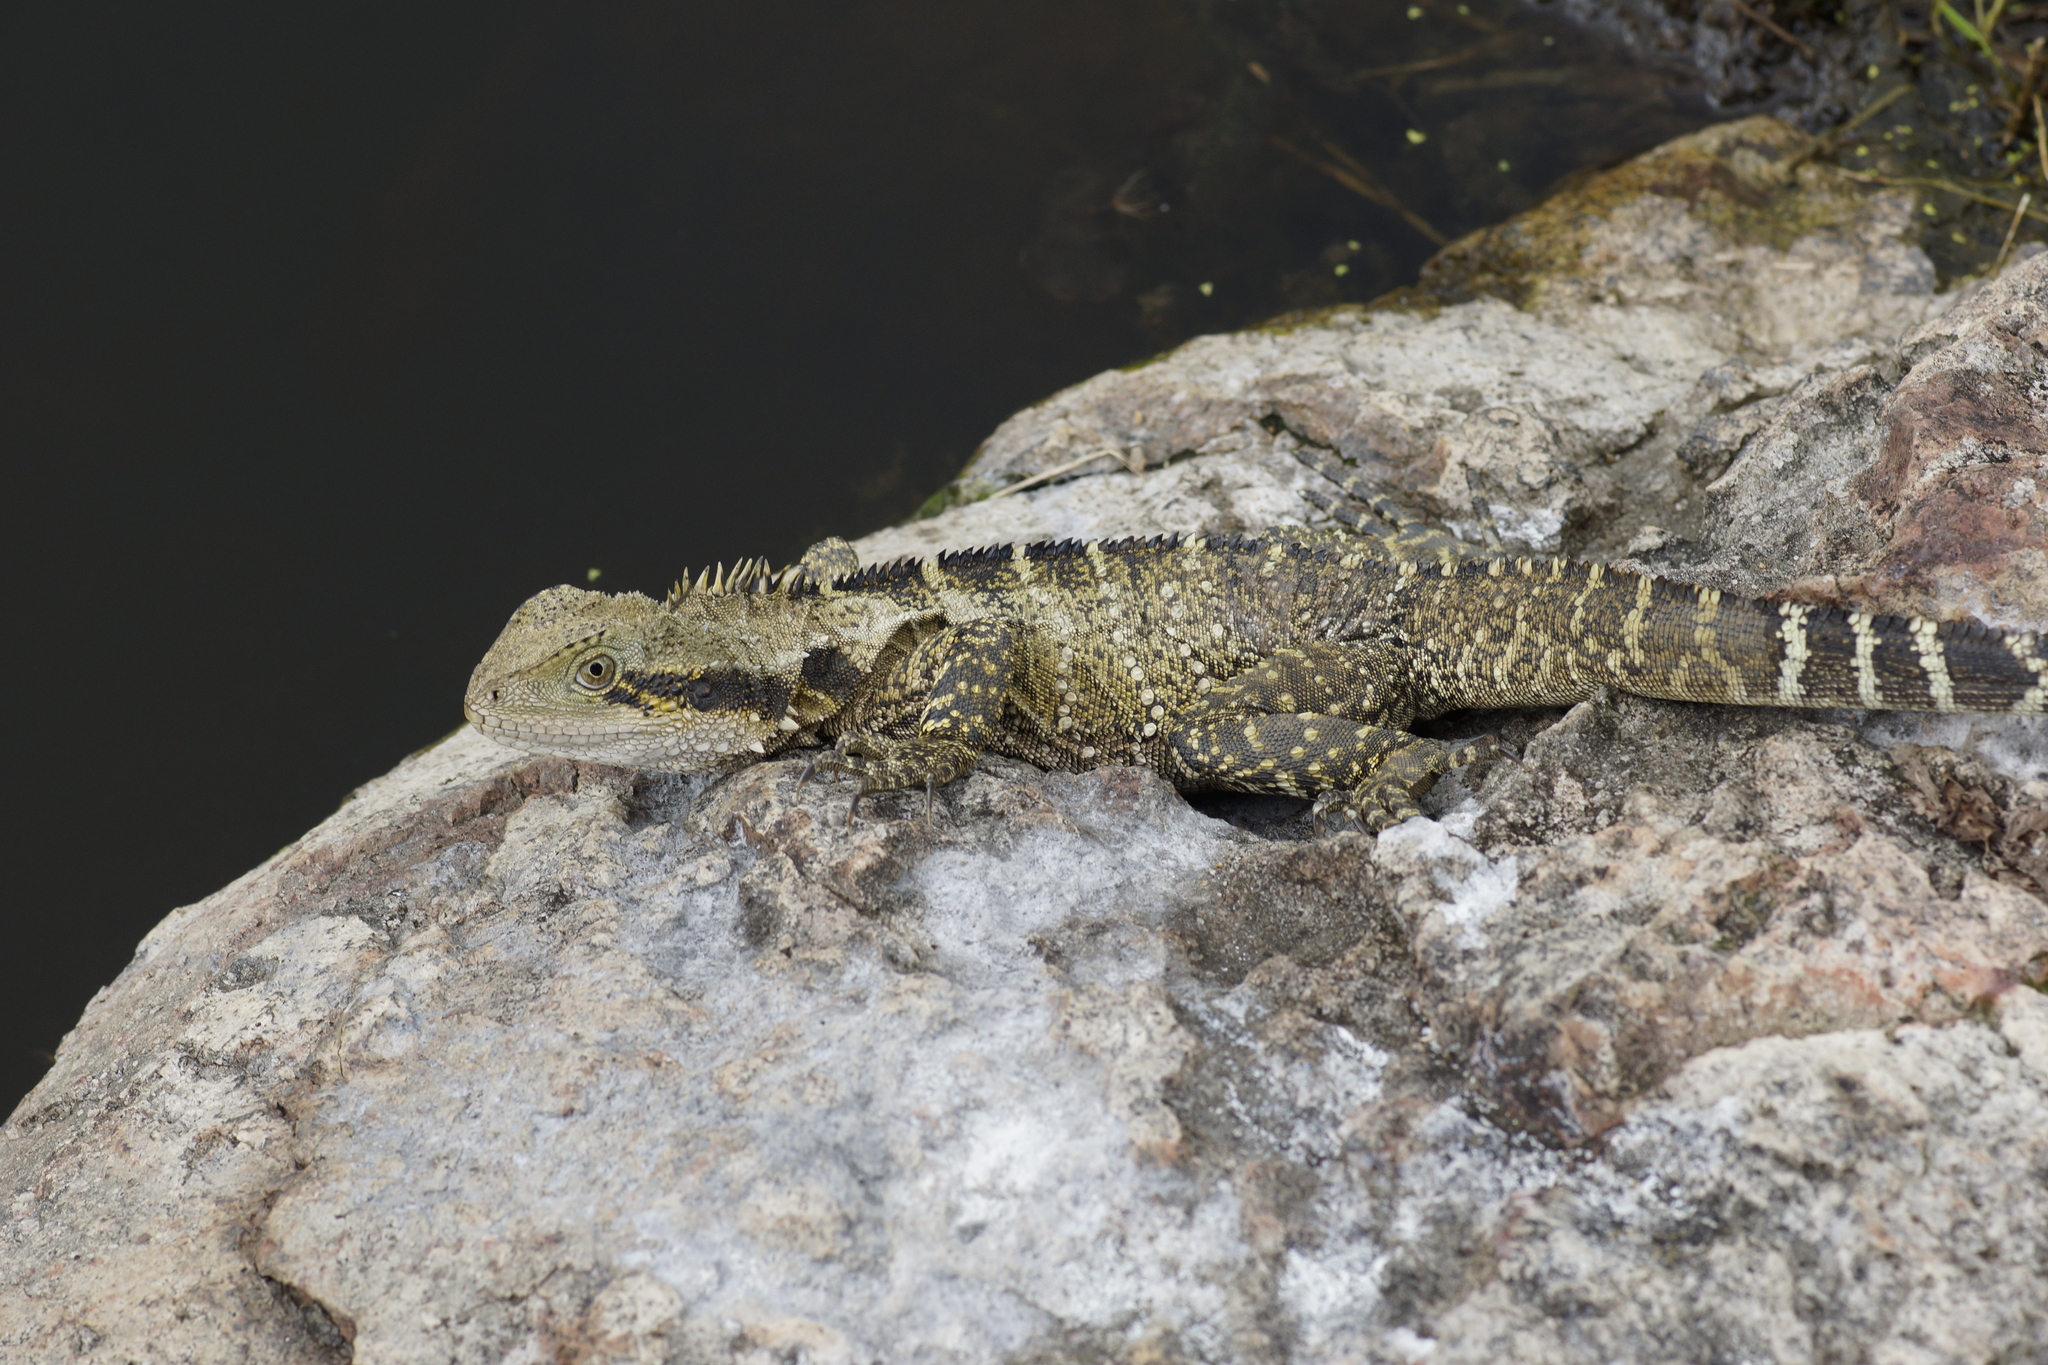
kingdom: Animalia
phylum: Chordata
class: Squamata
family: Agamidae
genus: Intellagama
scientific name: Intellagama lesueurii
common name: Eastern water dragon
